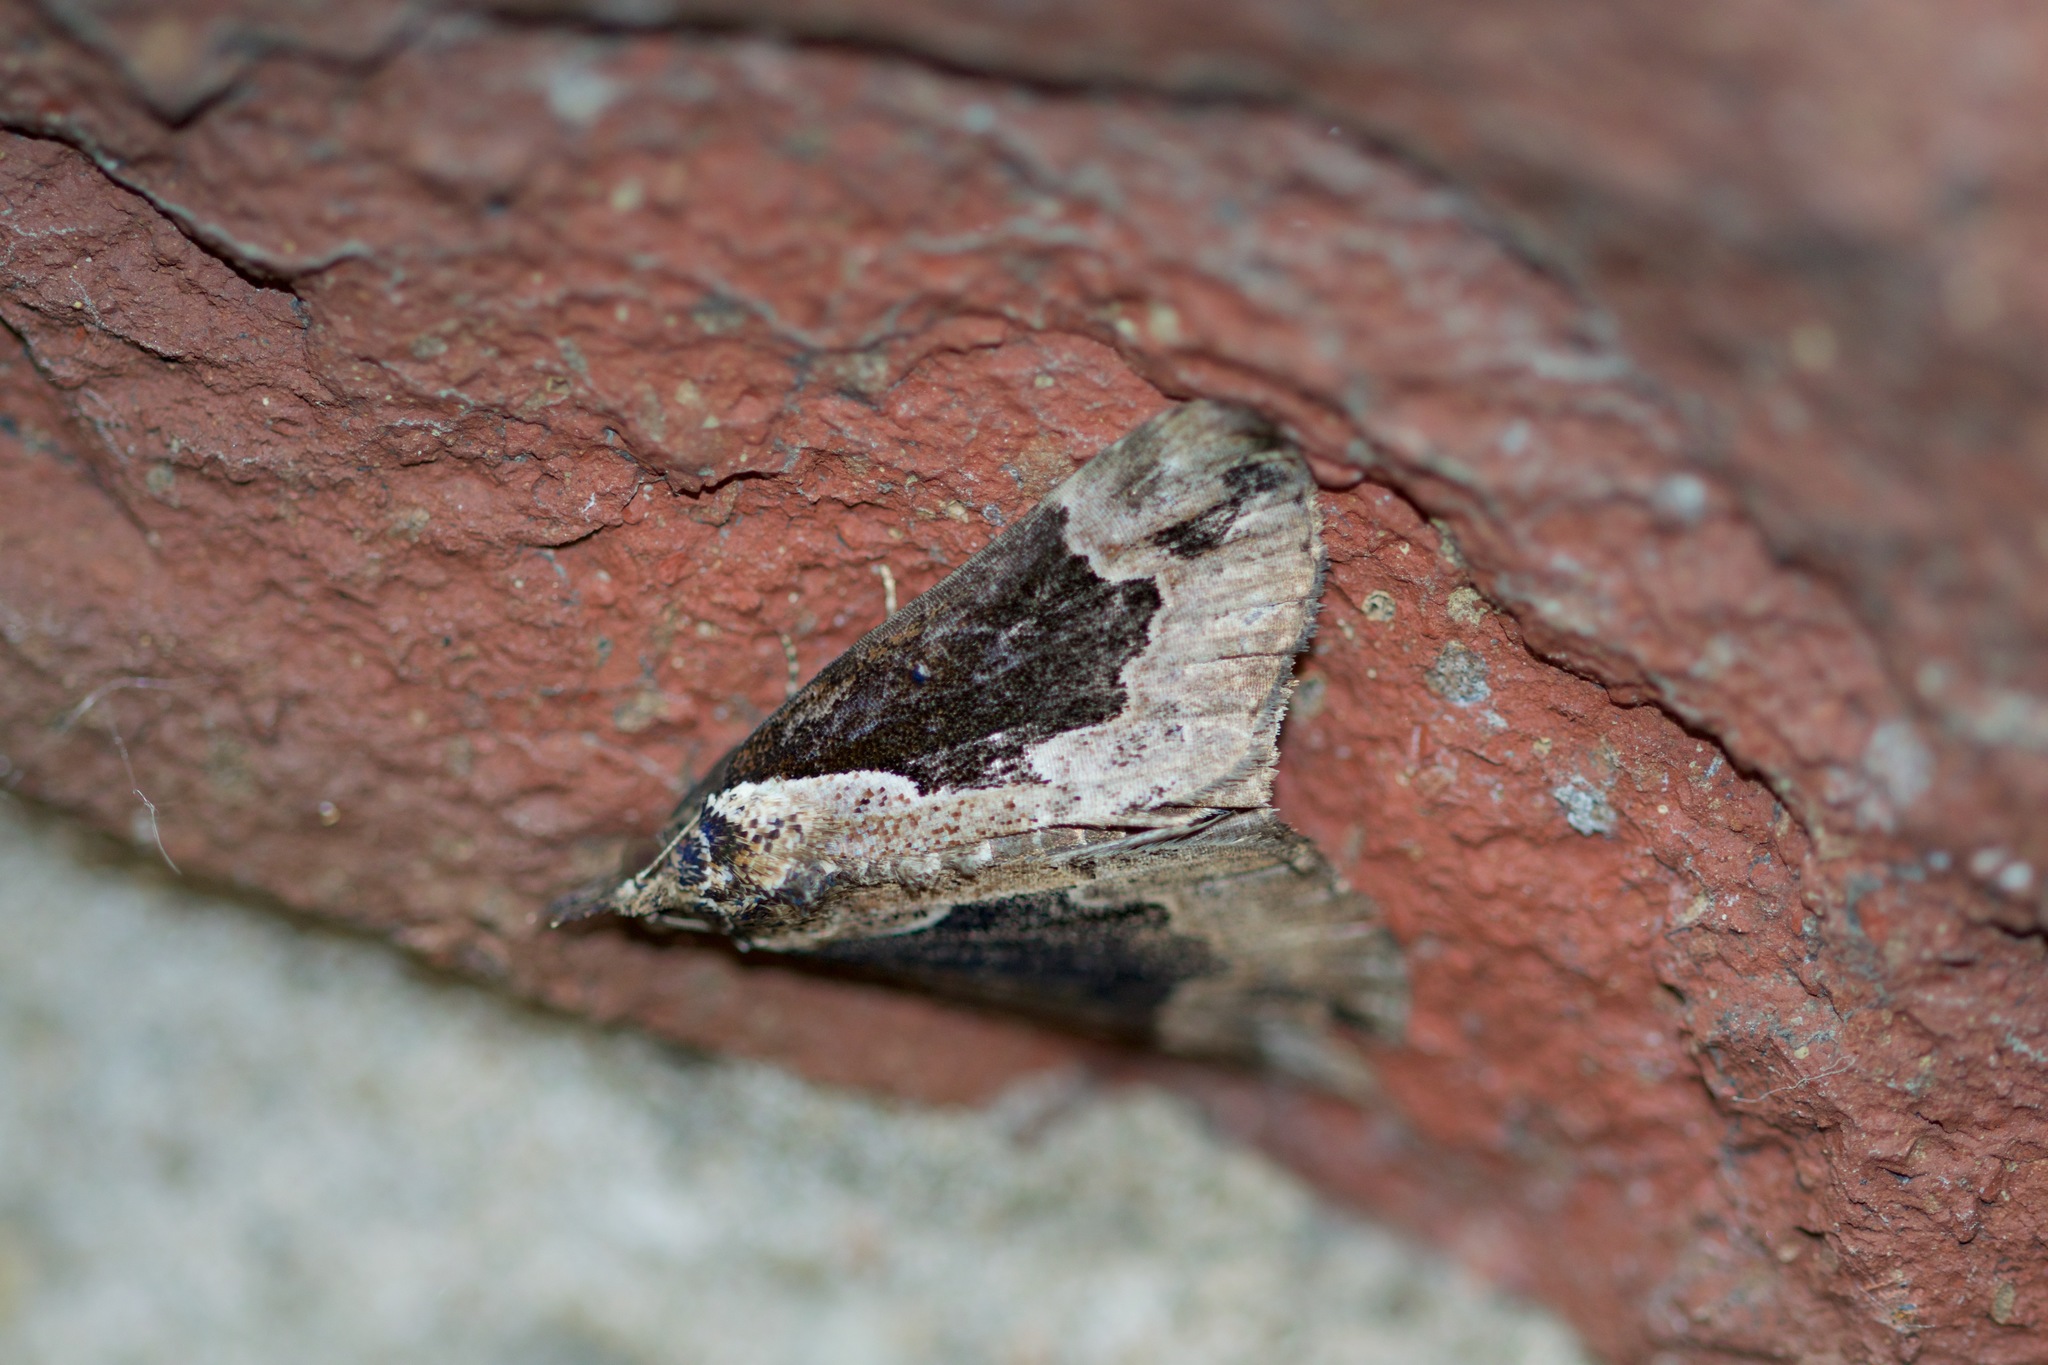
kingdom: Animalia
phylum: Arthropoda
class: Insecta
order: Lepidoptera
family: Erebidae
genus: Hypena
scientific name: Hypena baltimoralis
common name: Baltimore snout
